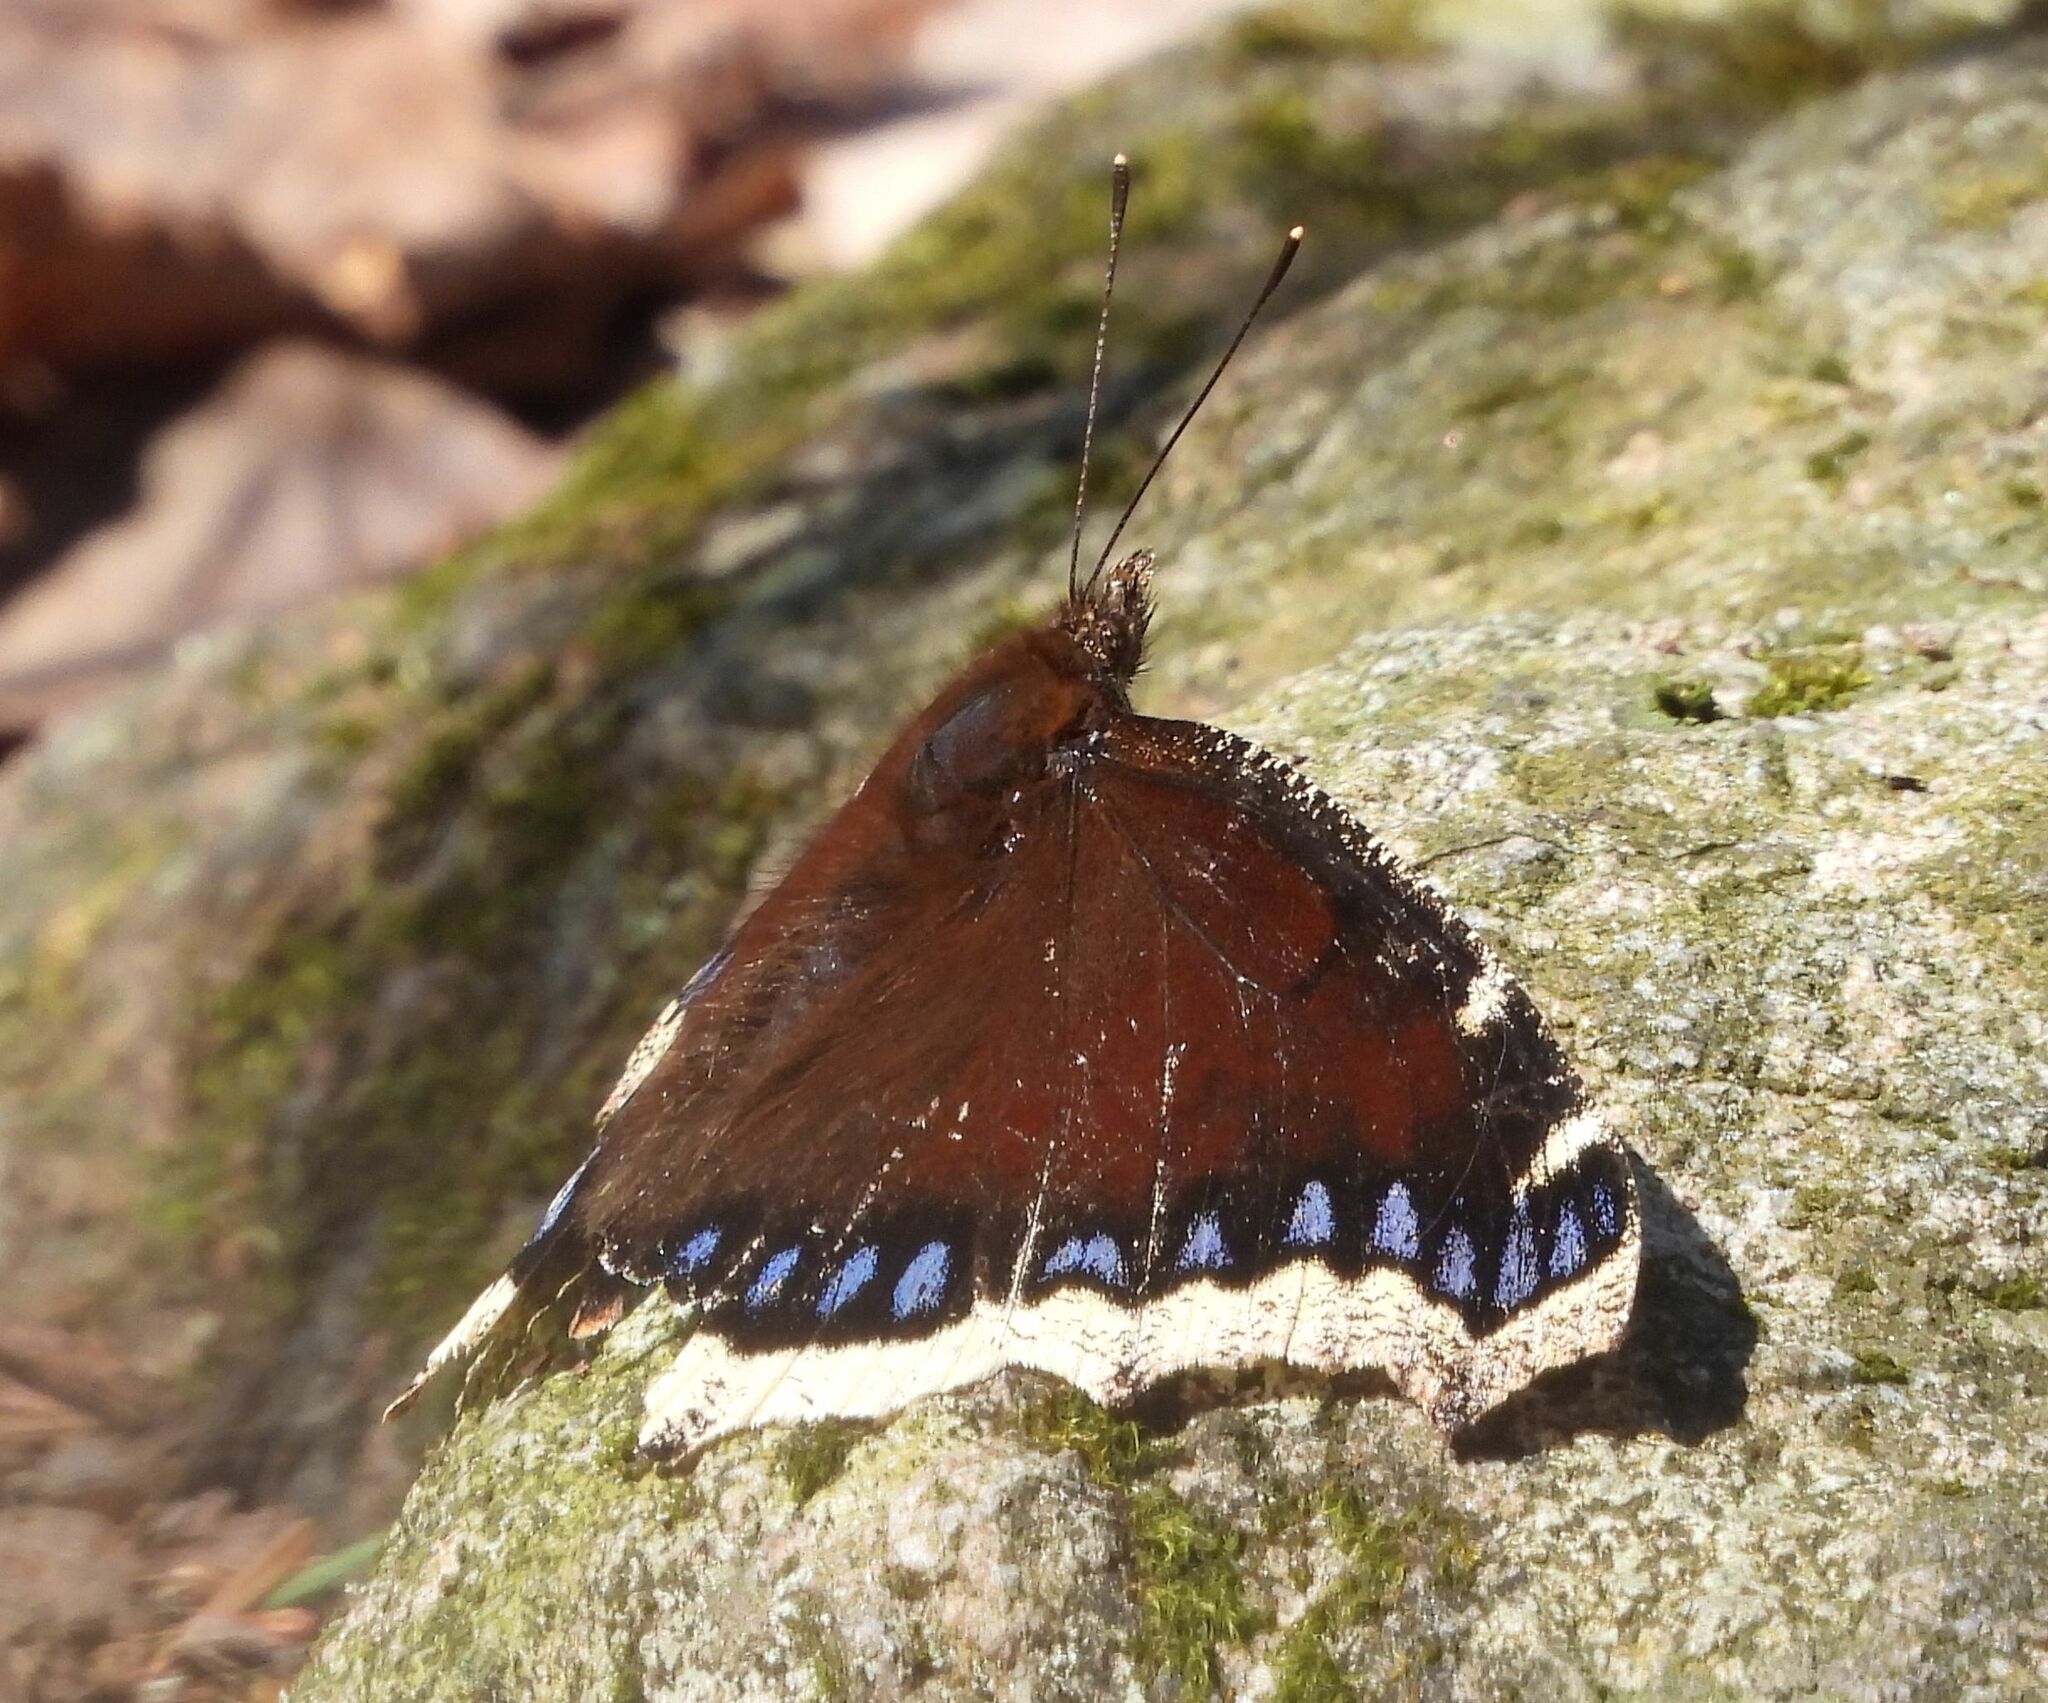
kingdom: Animalia
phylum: Arthropoda
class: Insecta
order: Lepidoptera
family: Nymphalidae
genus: Nymphalis
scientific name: Nymphalis antiopa
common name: Camberwell beauty
